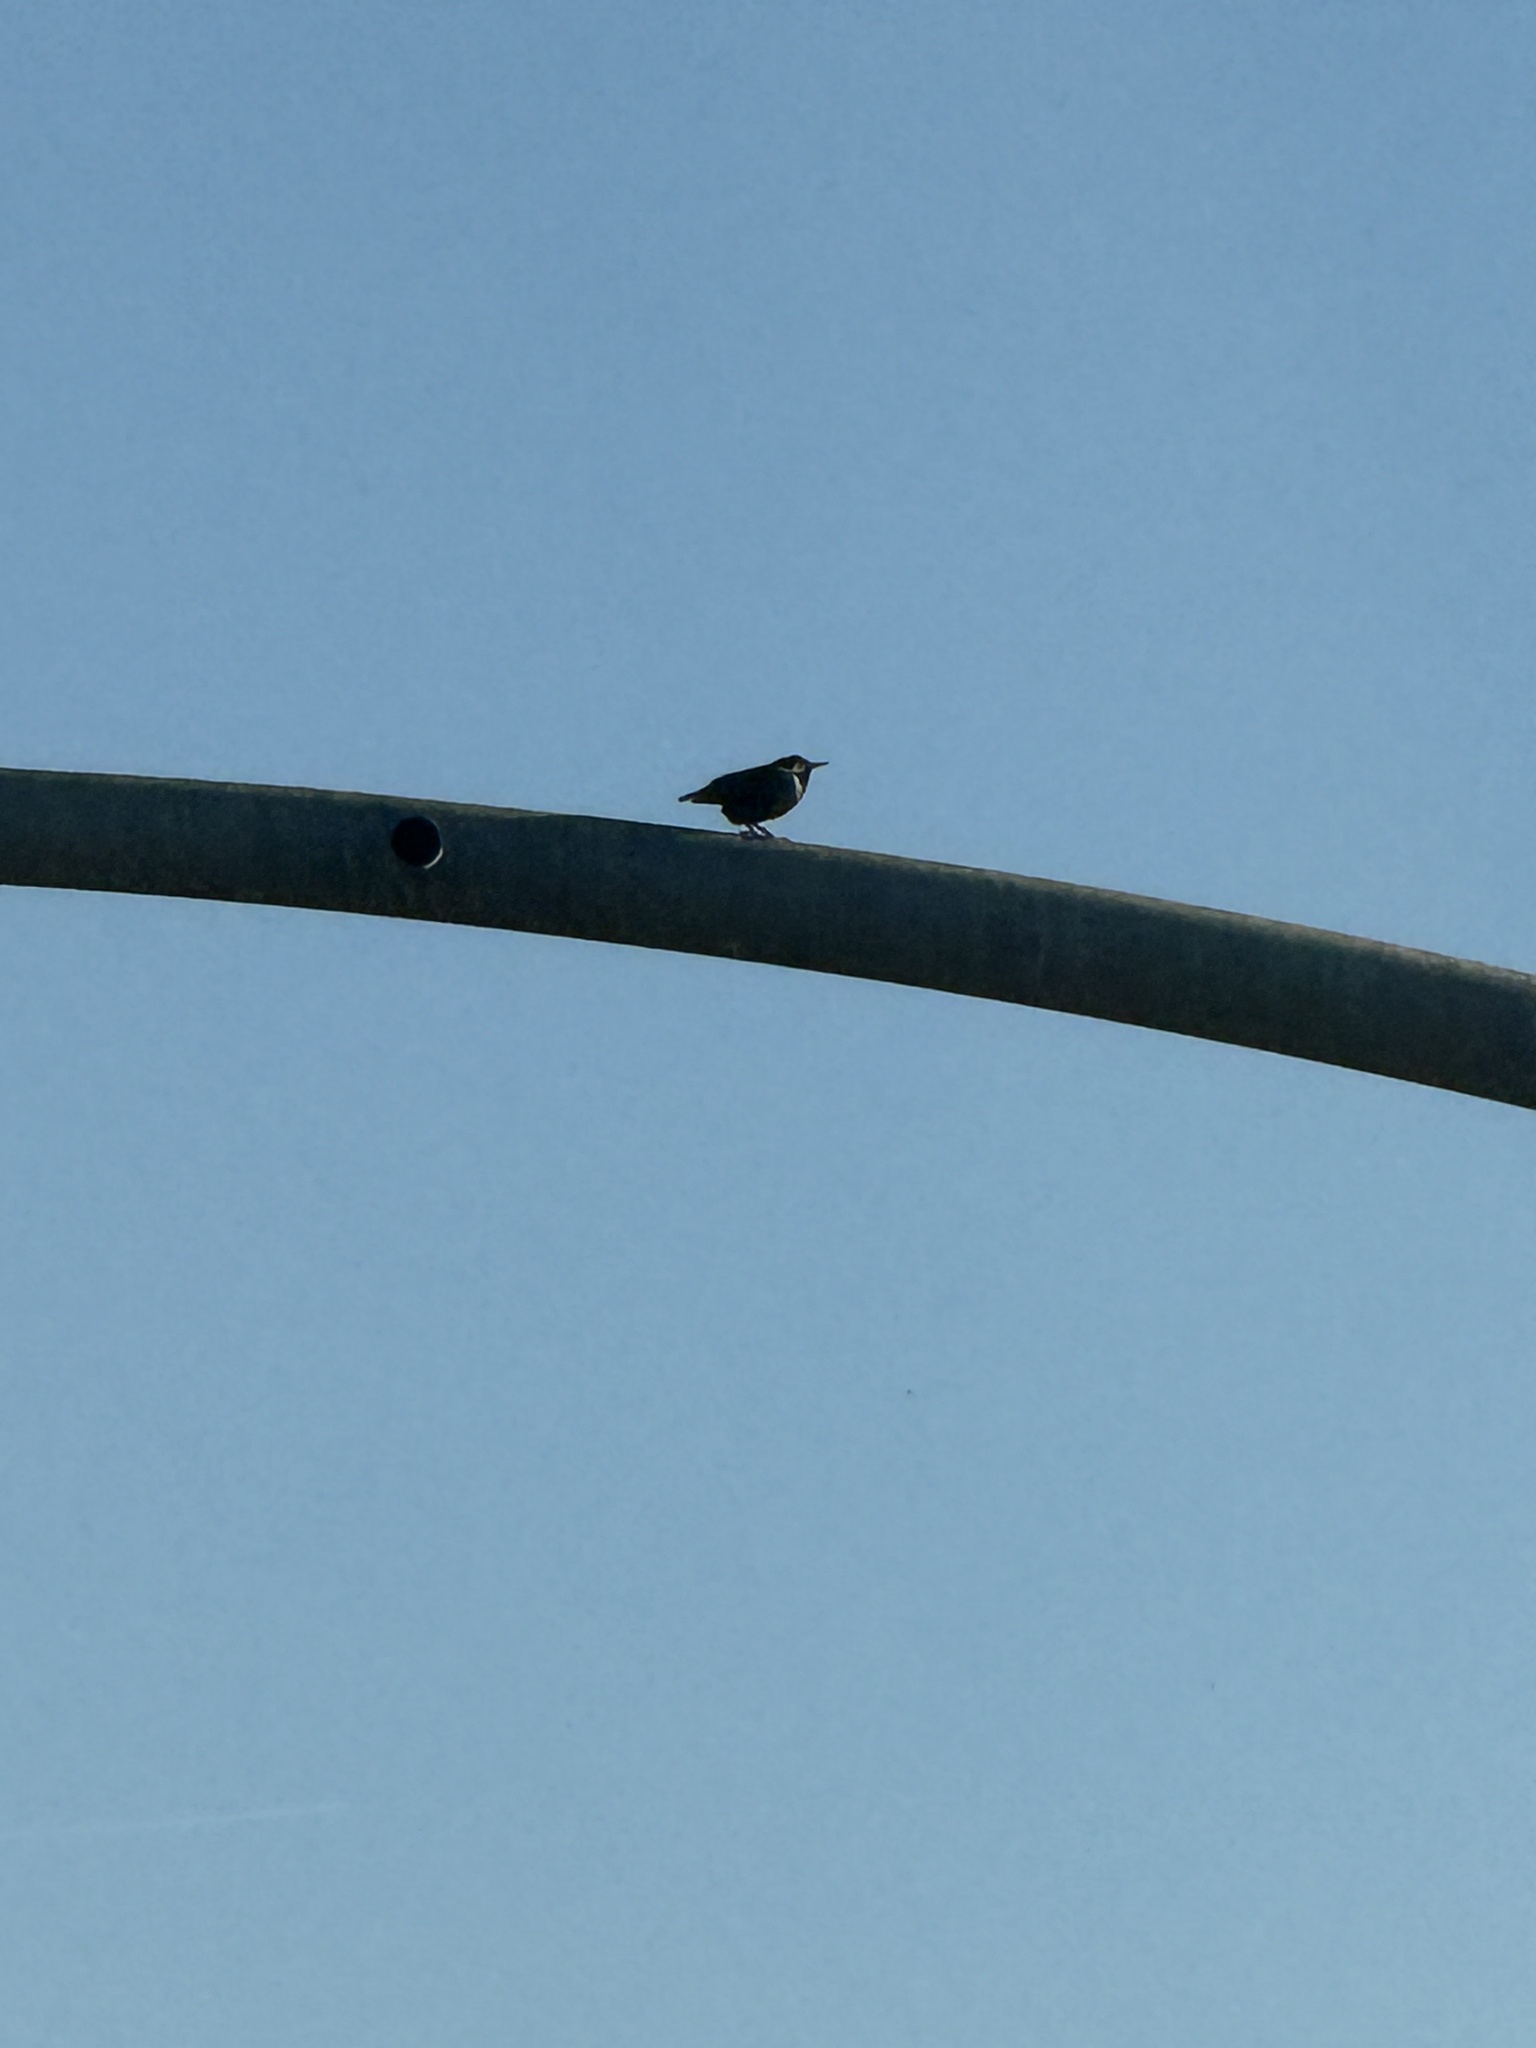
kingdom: Animalia
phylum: Chordata
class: Aves
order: Passeriformes
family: Sturnidae
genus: Sturnus
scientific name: Sturnus vulgaris
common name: Common starling
